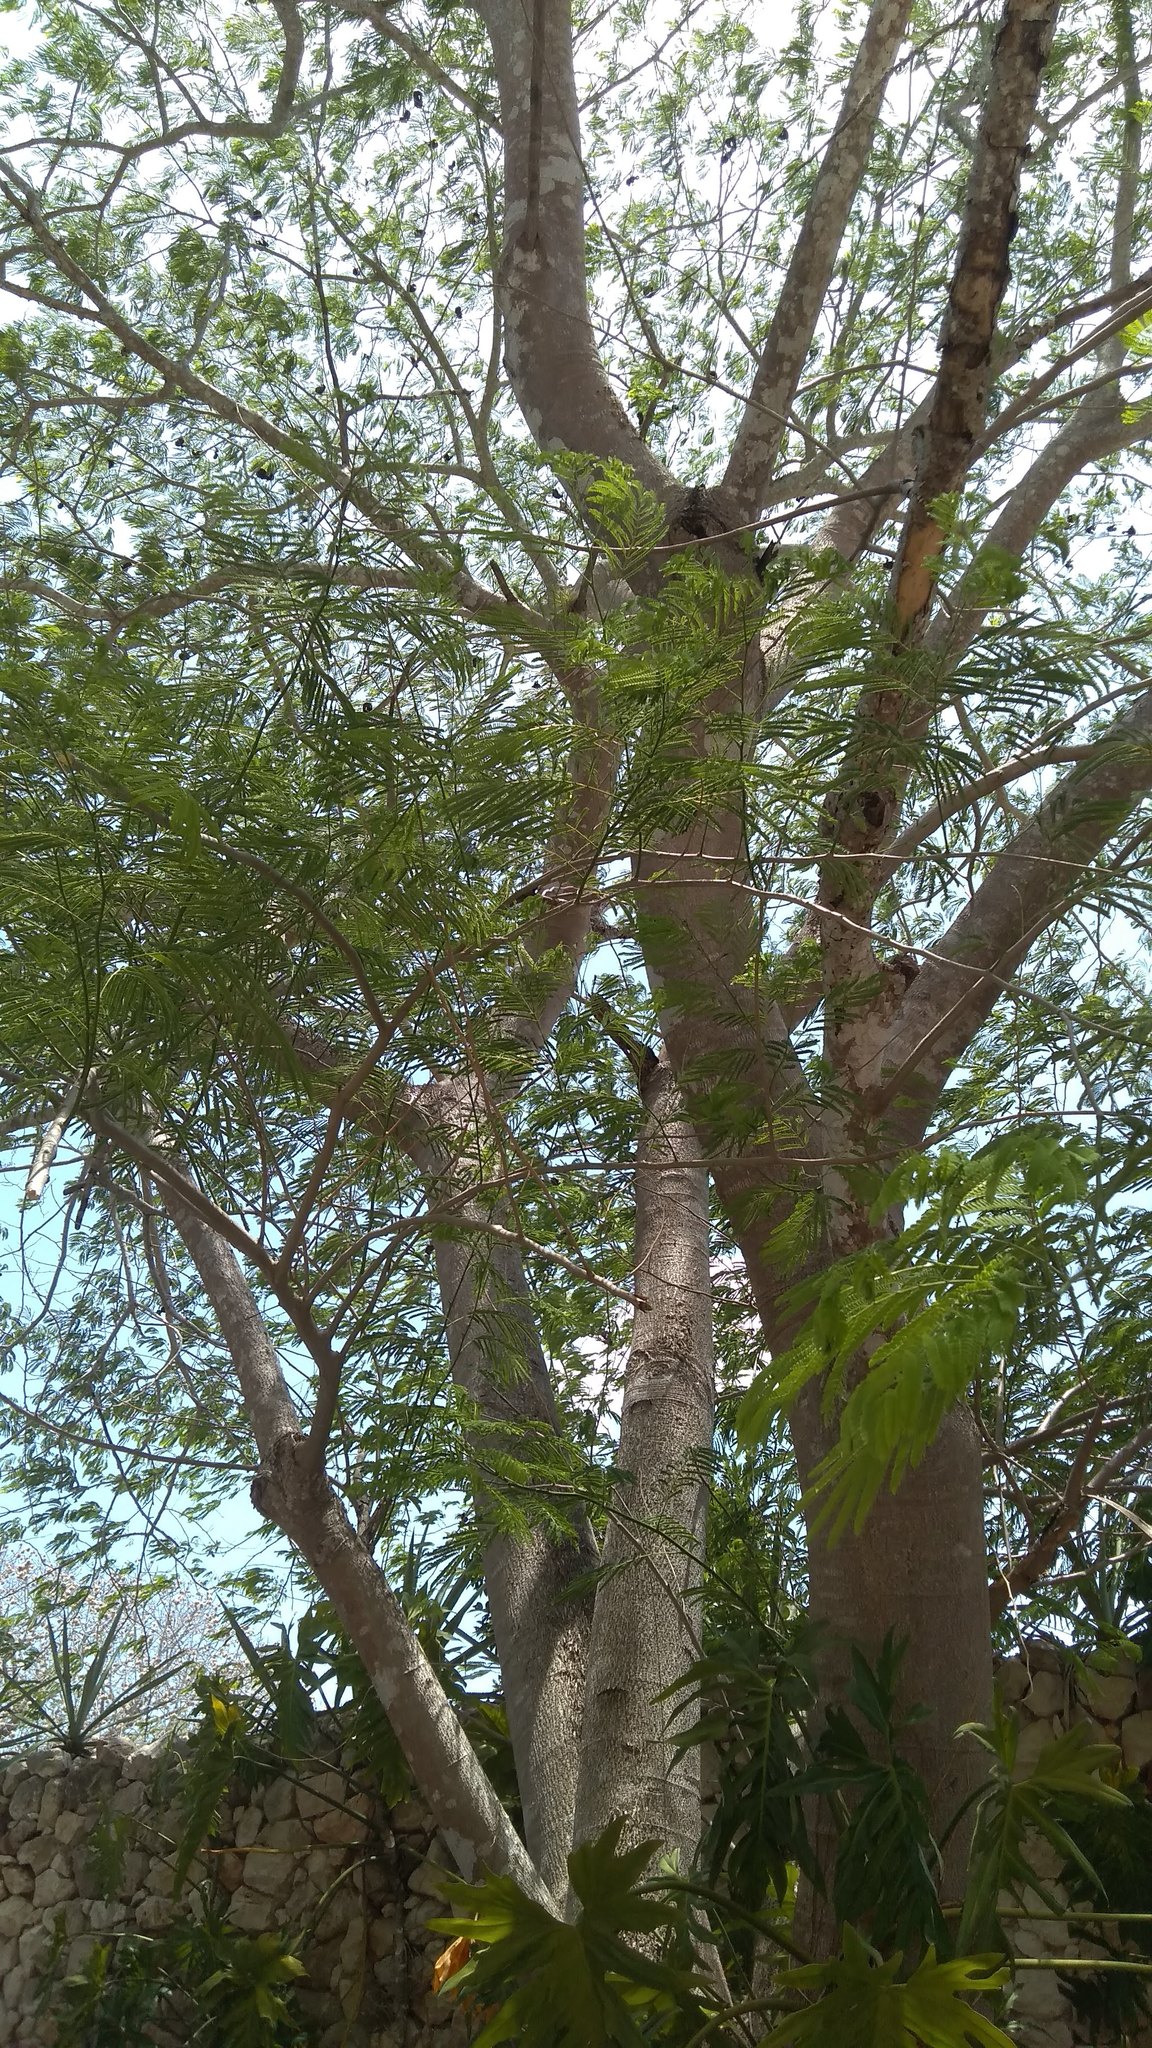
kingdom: Plantae
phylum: Tracheophyta
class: Magnoliopsida
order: Fabales
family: Fabaceae
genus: Enterolobium
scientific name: Enterolobium cyclocarpum
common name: Ear tree
